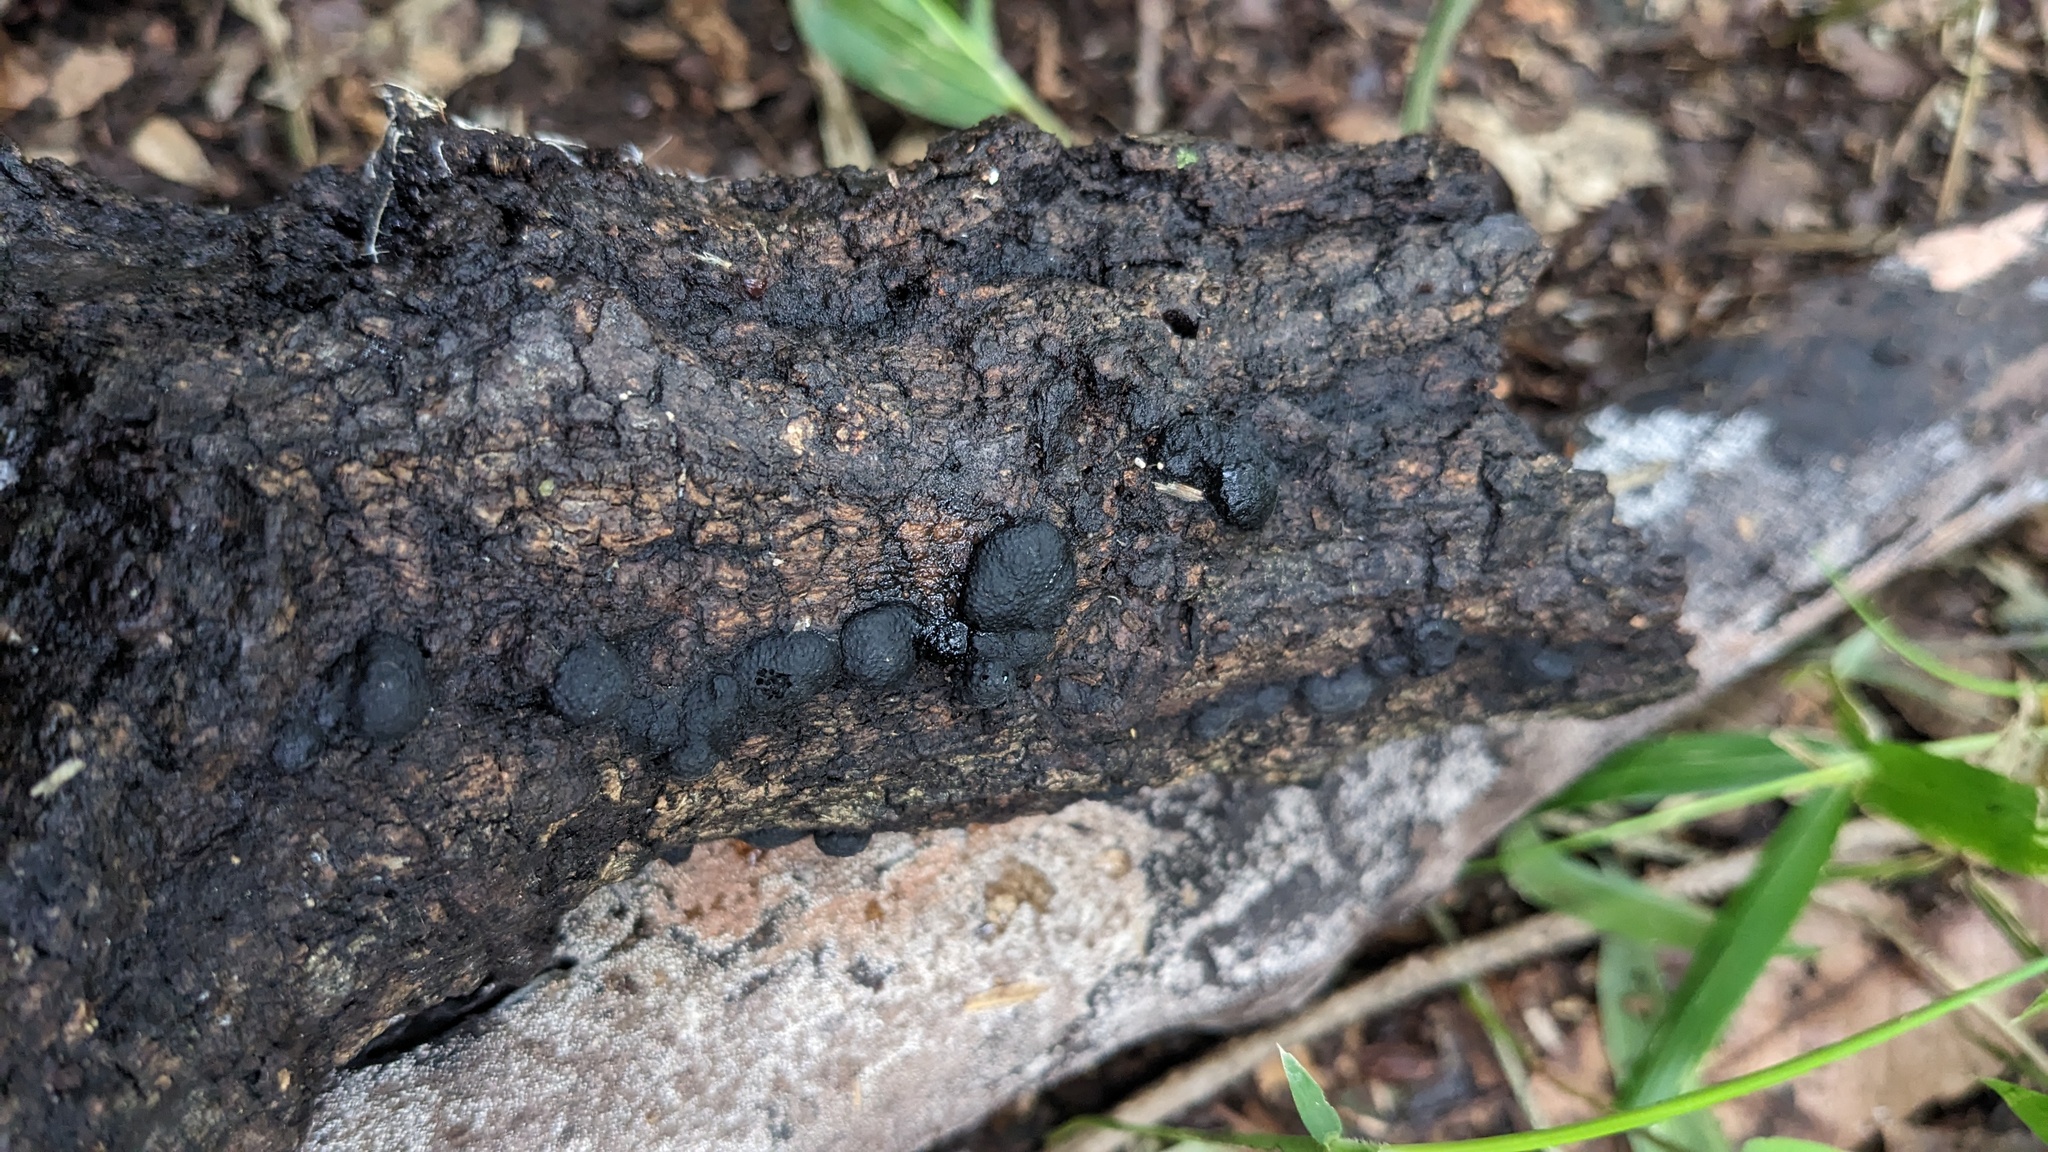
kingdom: Fungi
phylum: Ascomycota
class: Sordariomycetes
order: Xylariales
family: Hypoxylaceae
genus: Annulohypoxylon
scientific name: Annulohypoxylon truncatum
